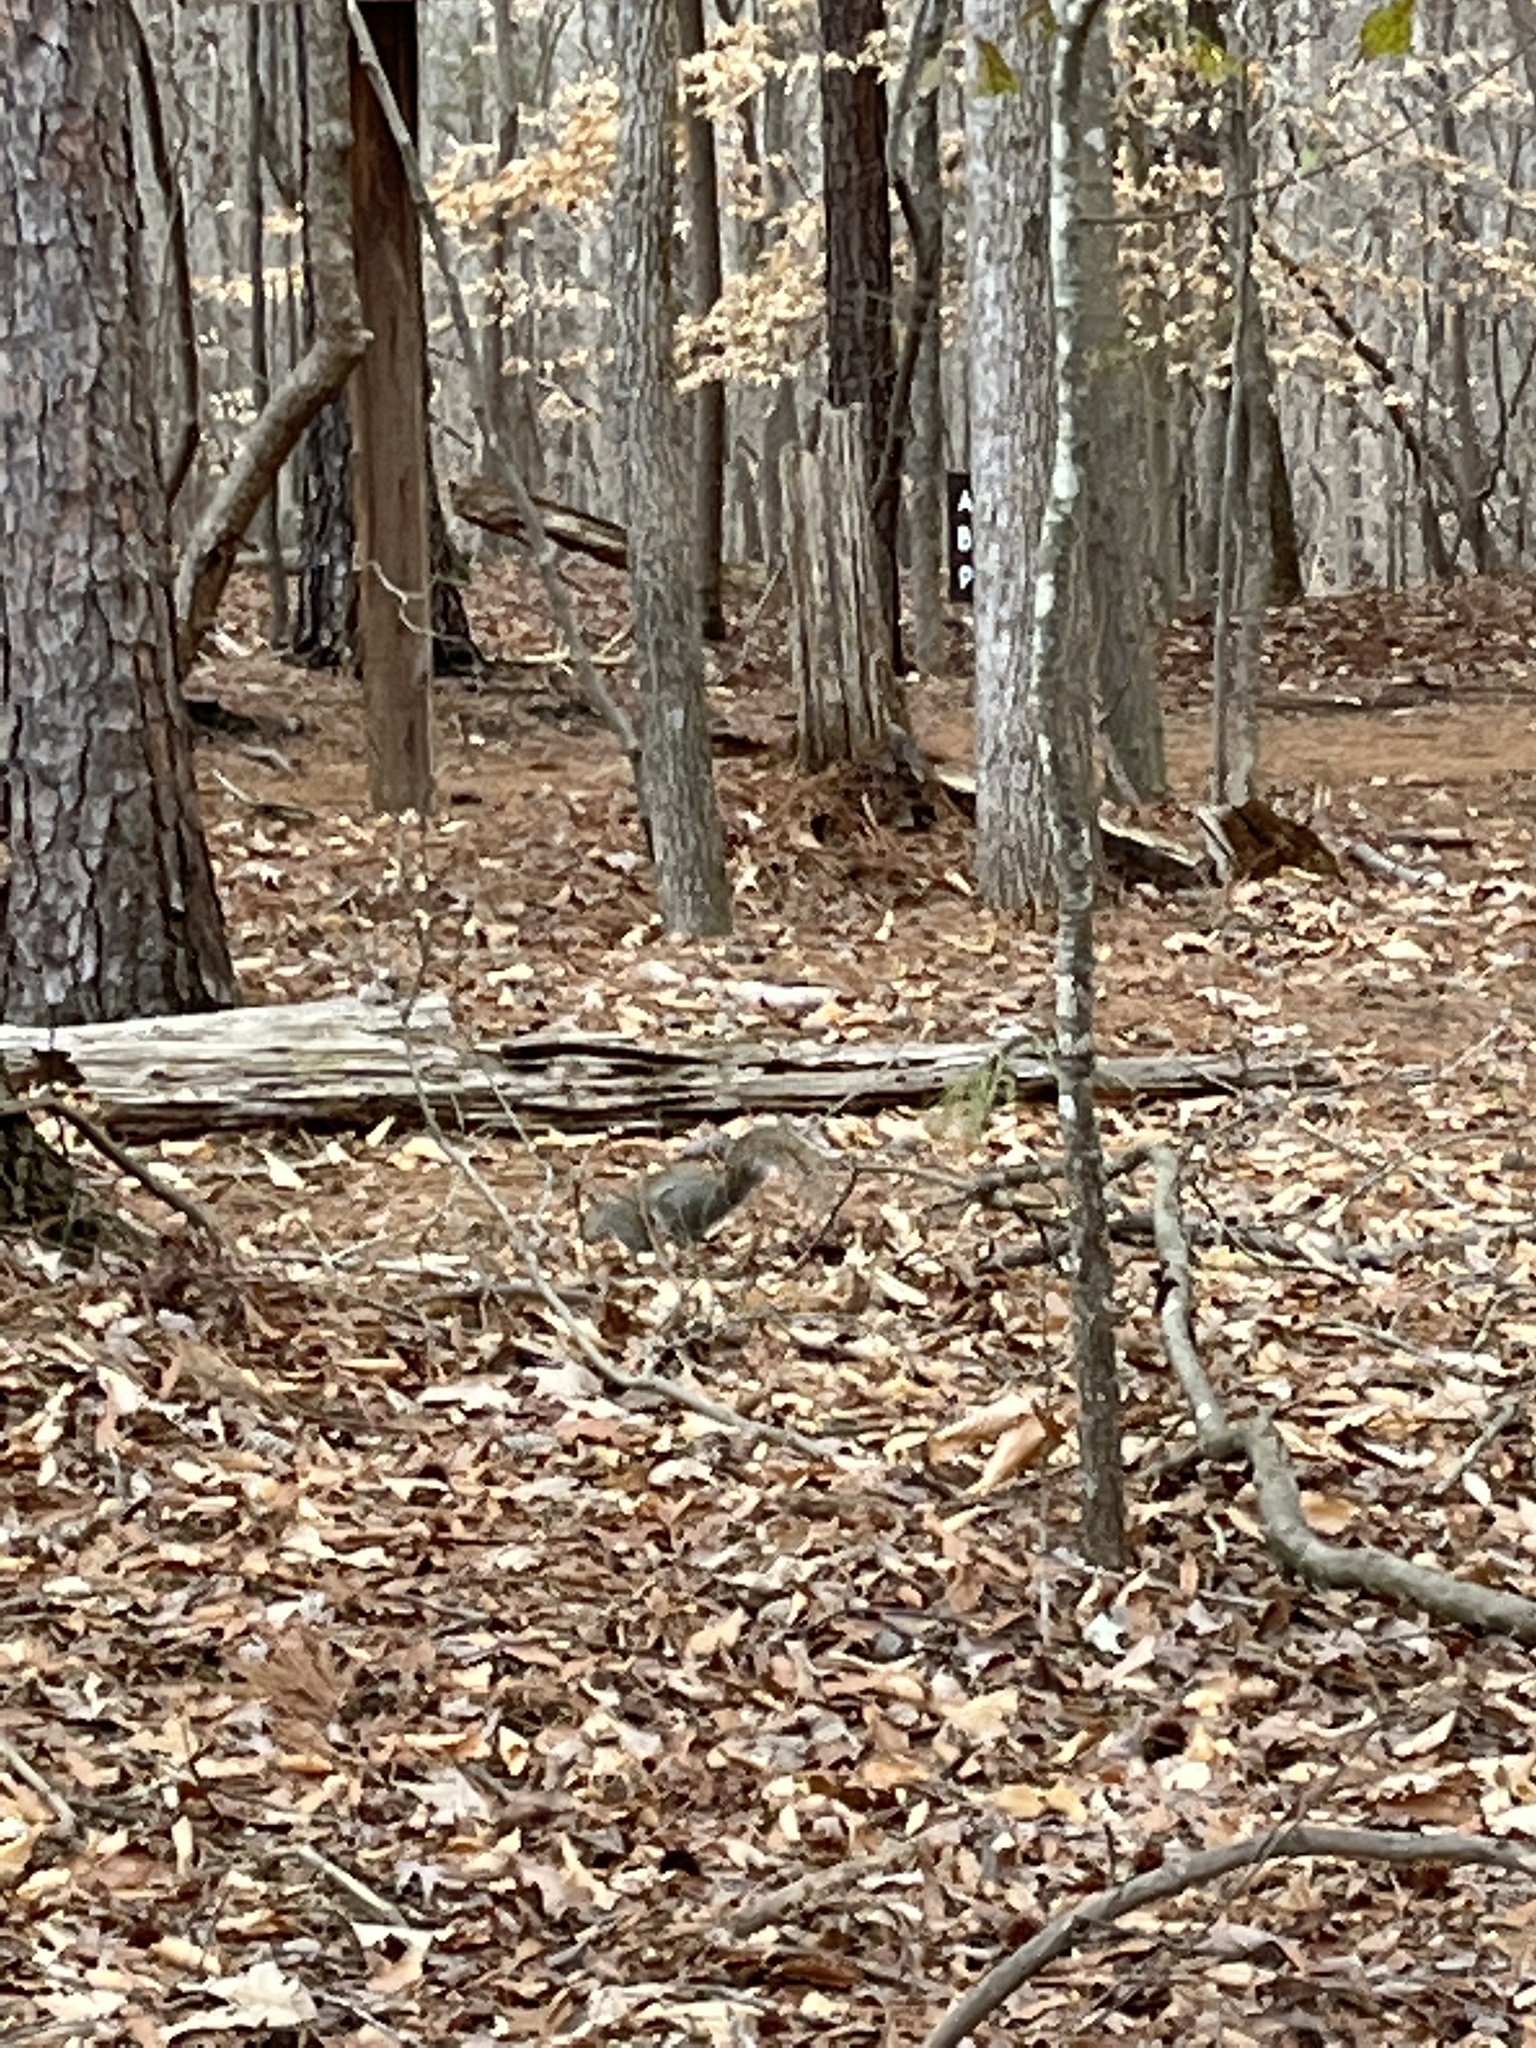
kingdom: Animalia
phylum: Chordata
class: Mammalia
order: Rodentia
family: Sciuridae
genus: Sciurus
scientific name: Sciurus carolinensis
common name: Eastern gray squirrel
